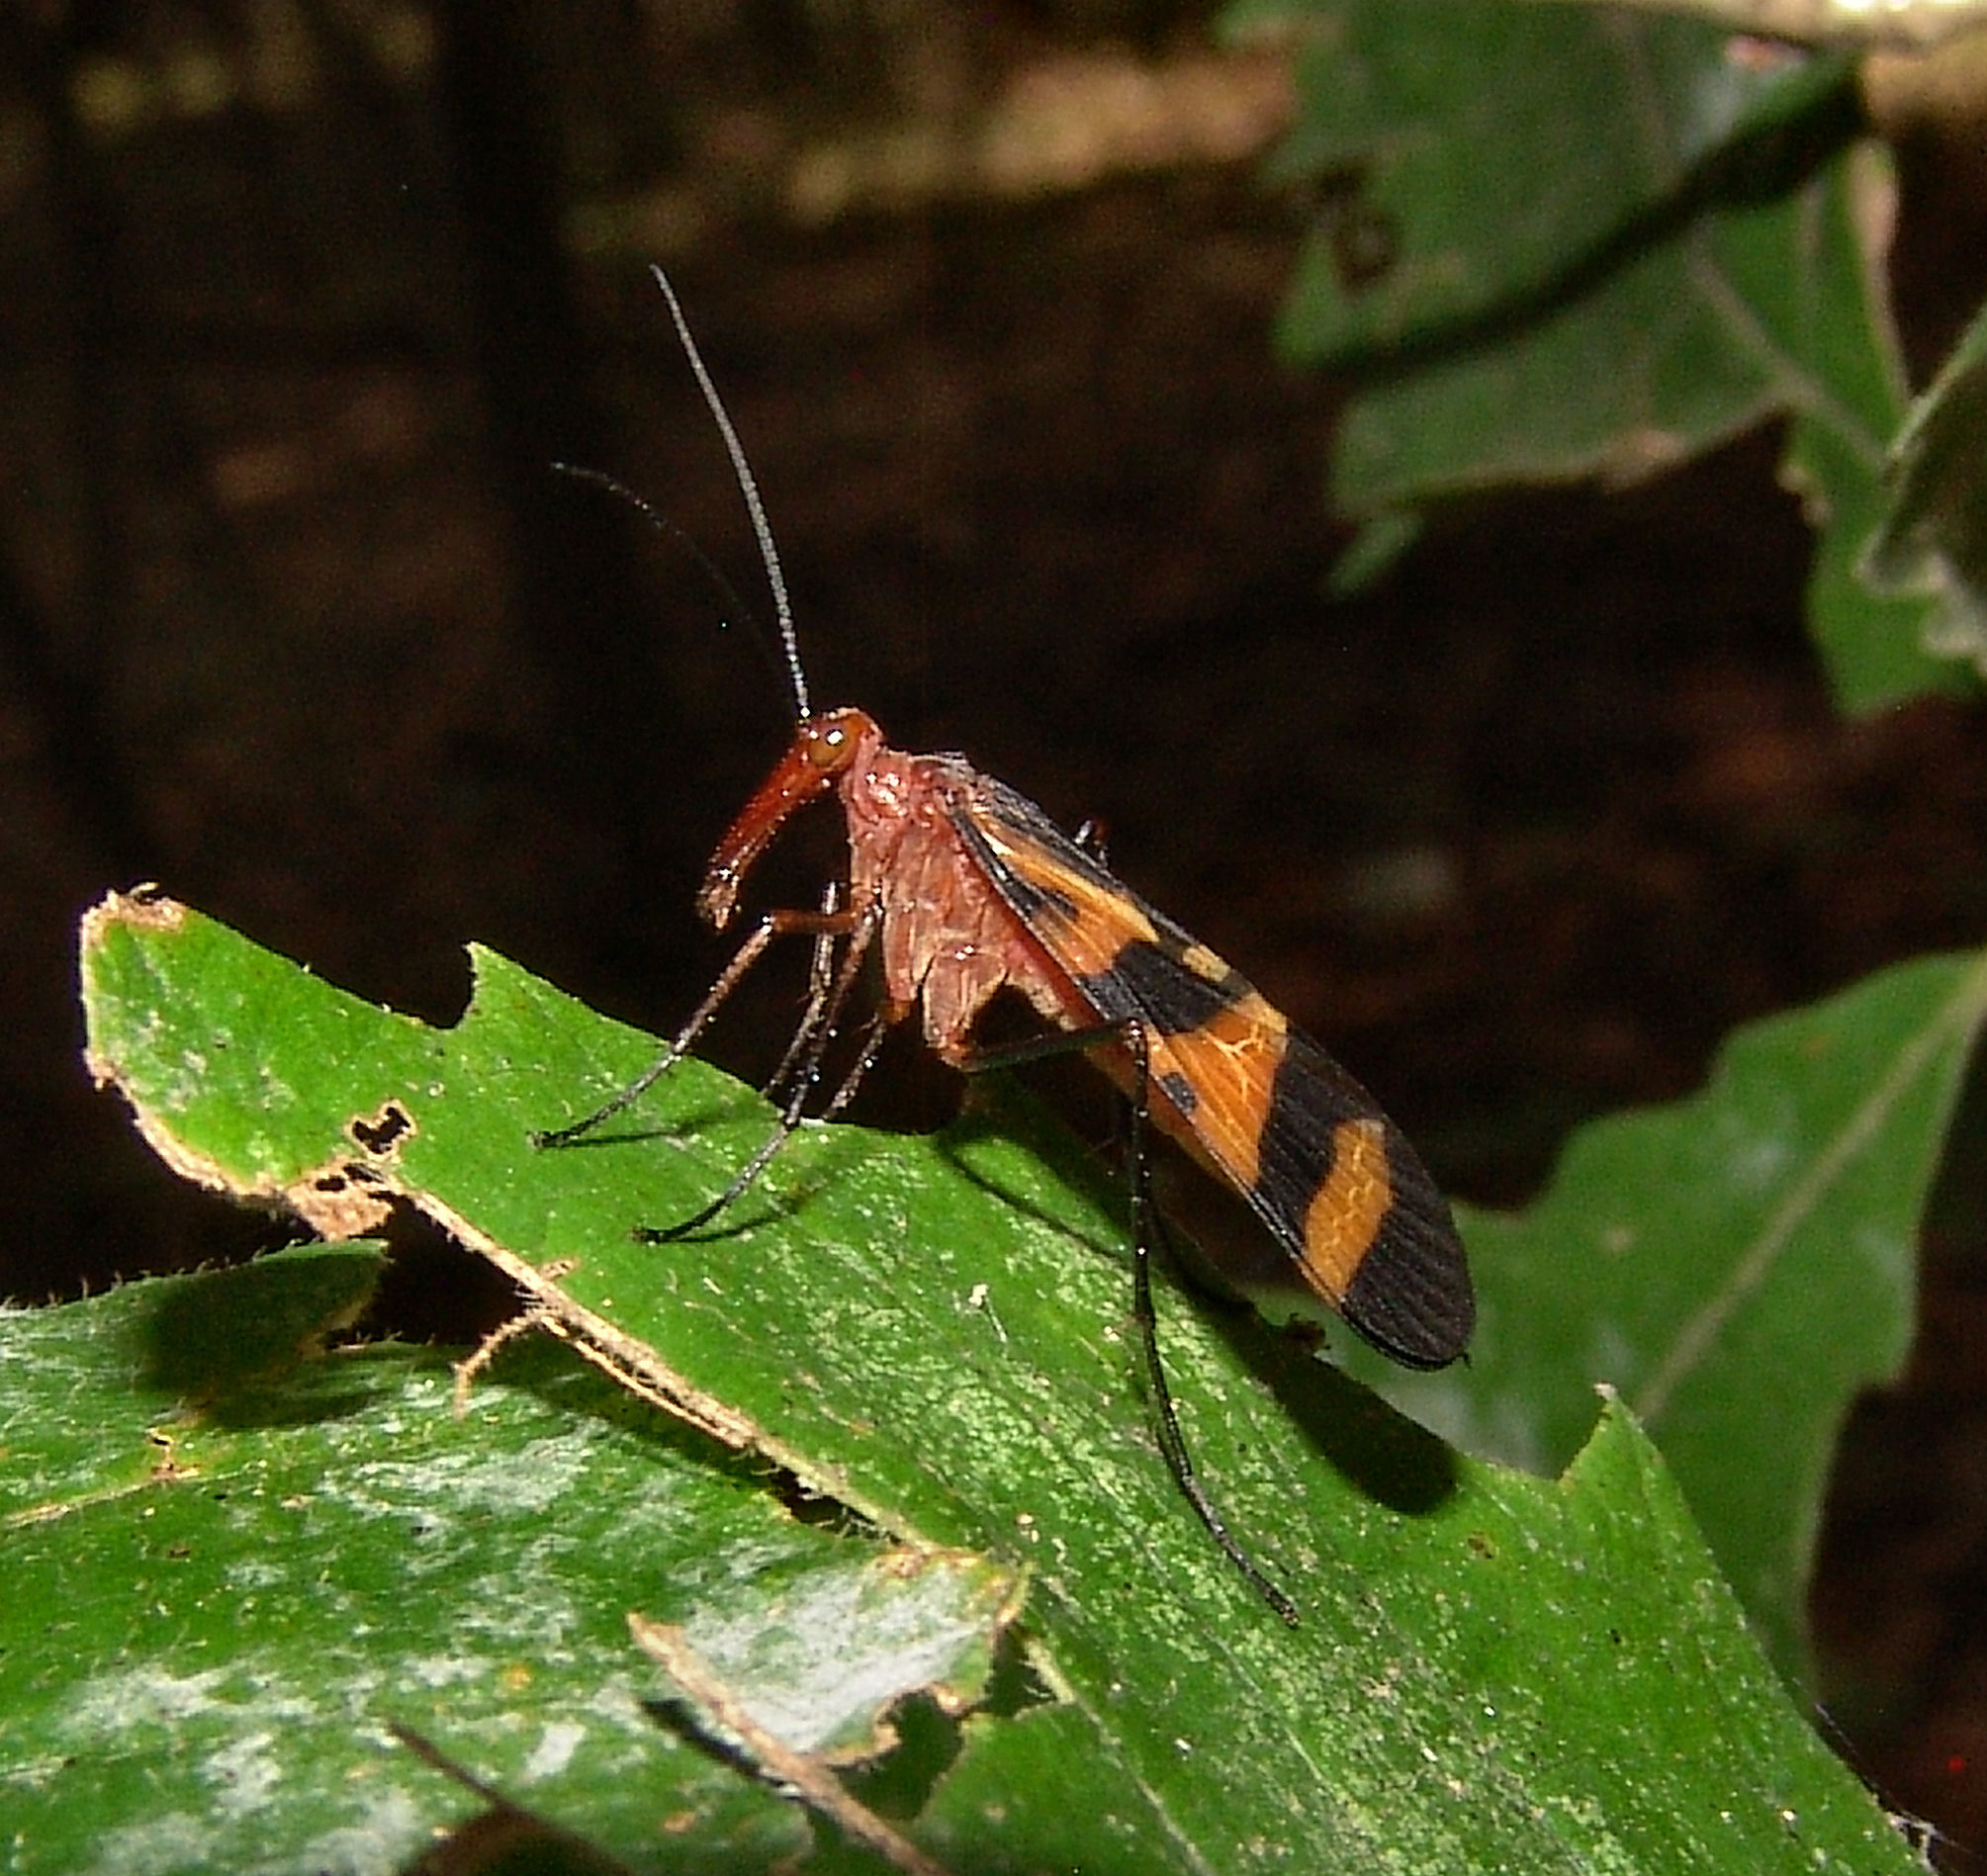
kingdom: Animalia
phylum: Arthropoda
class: Insecta
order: Mecoptera
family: Panorpidae
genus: Panorpa
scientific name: Panorpa nuptialis
